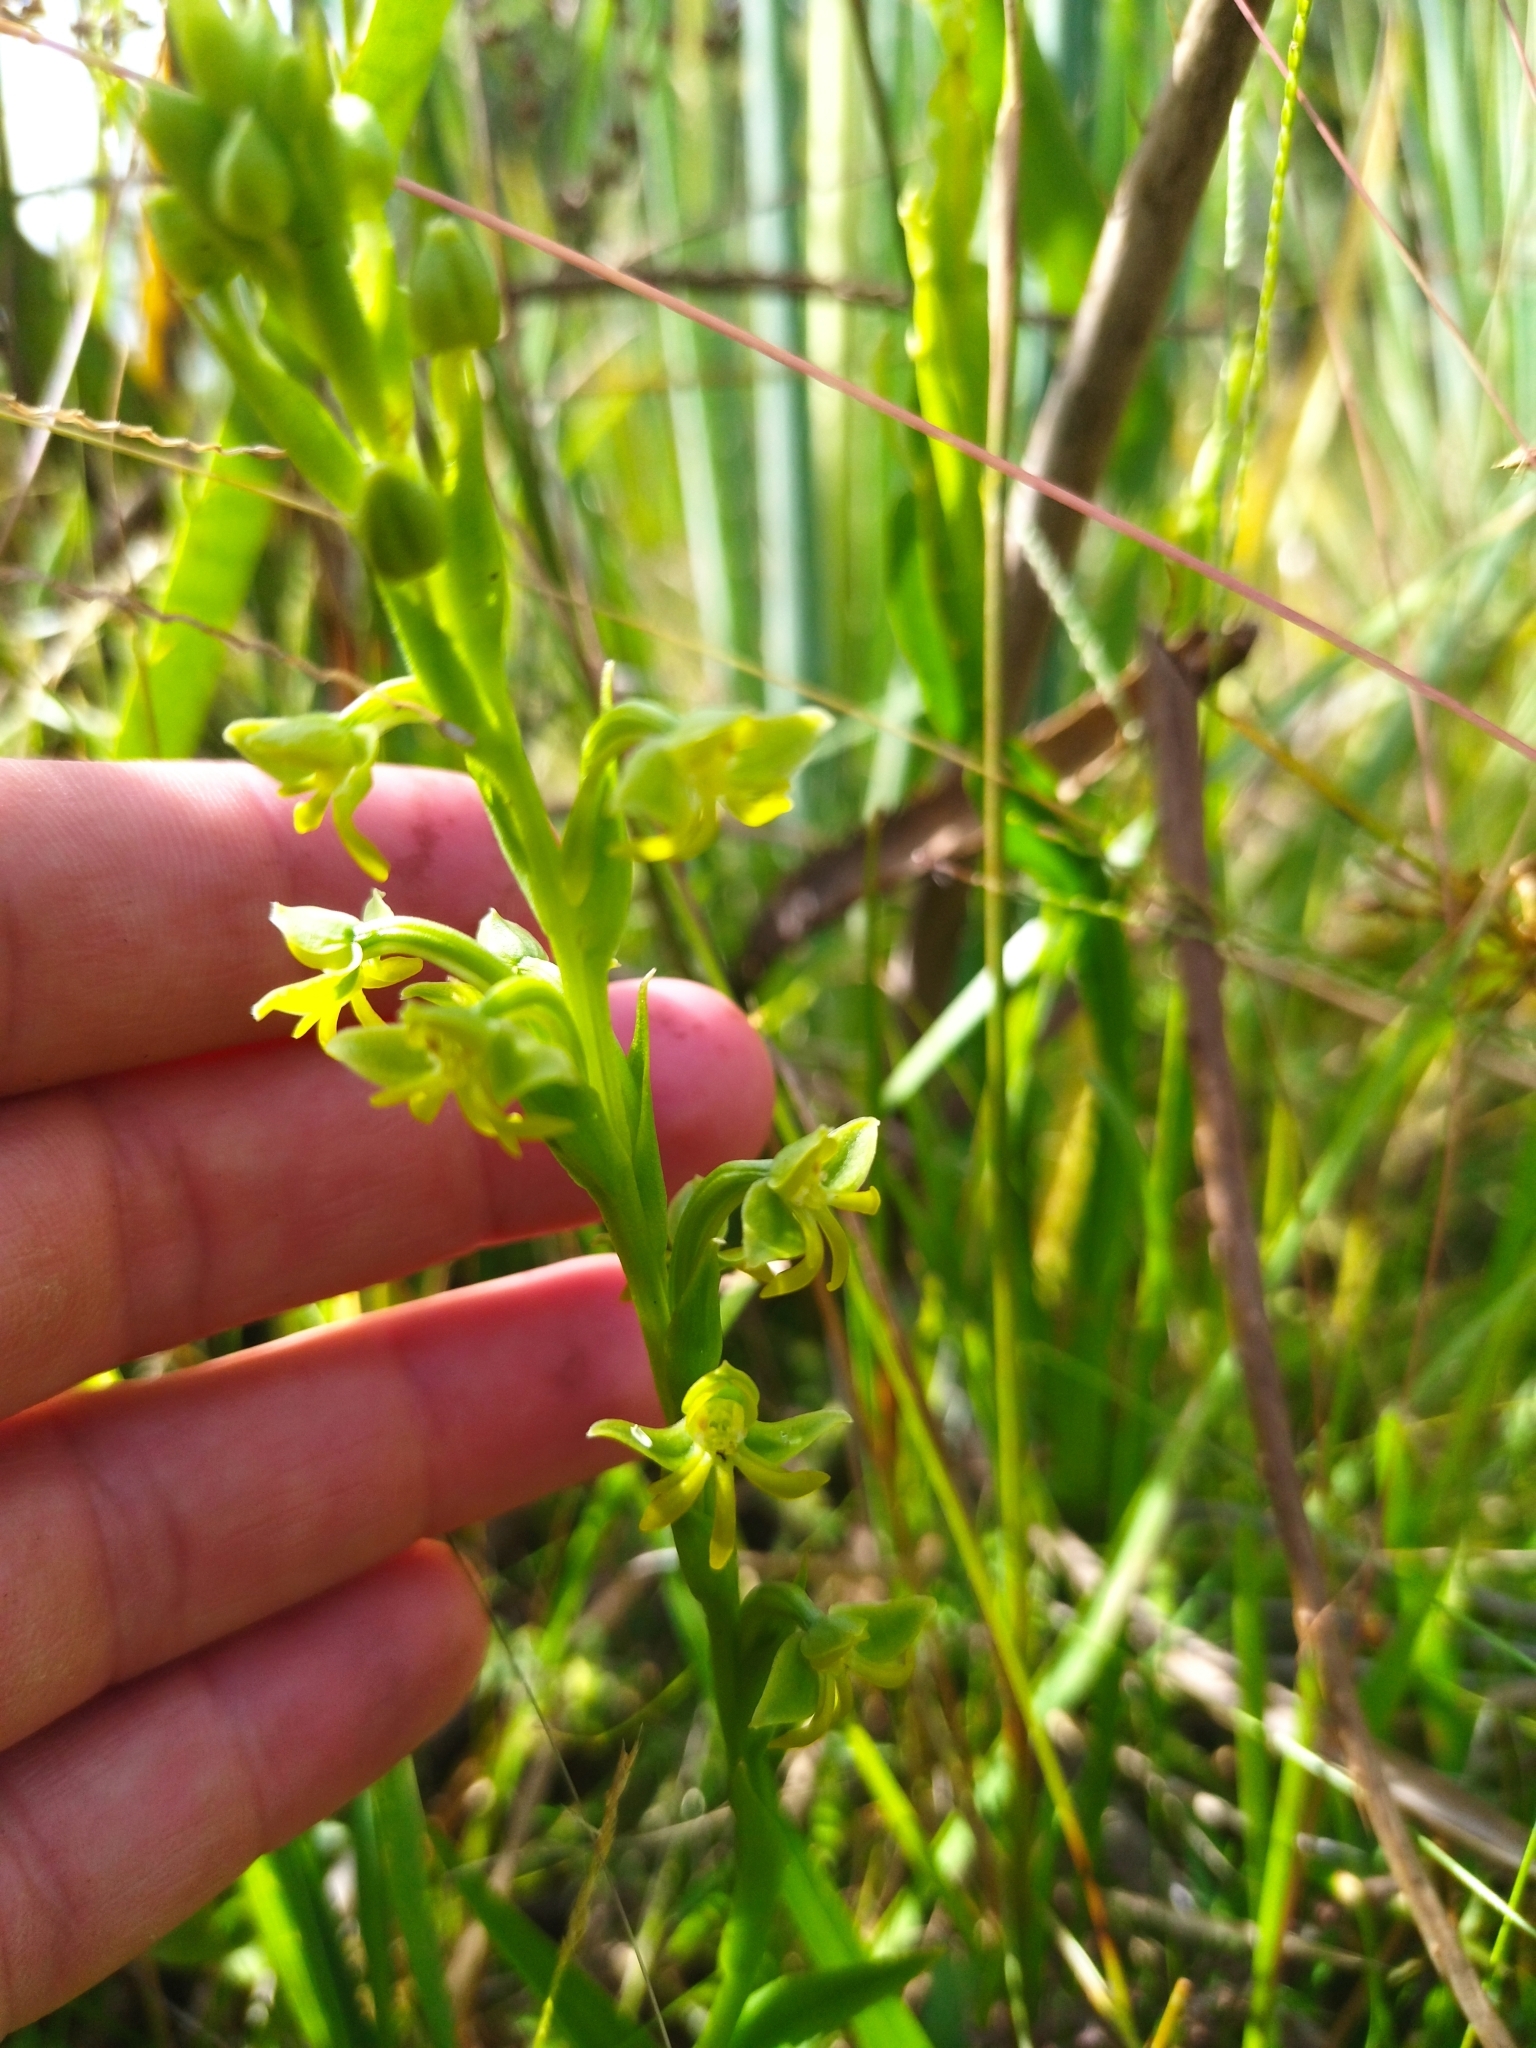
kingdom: Plantae
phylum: Tracheophyta
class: Liliopsida
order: Asparagales
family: Orchidaceae
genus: Habenaria
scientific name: Habenaria pentadactyla
